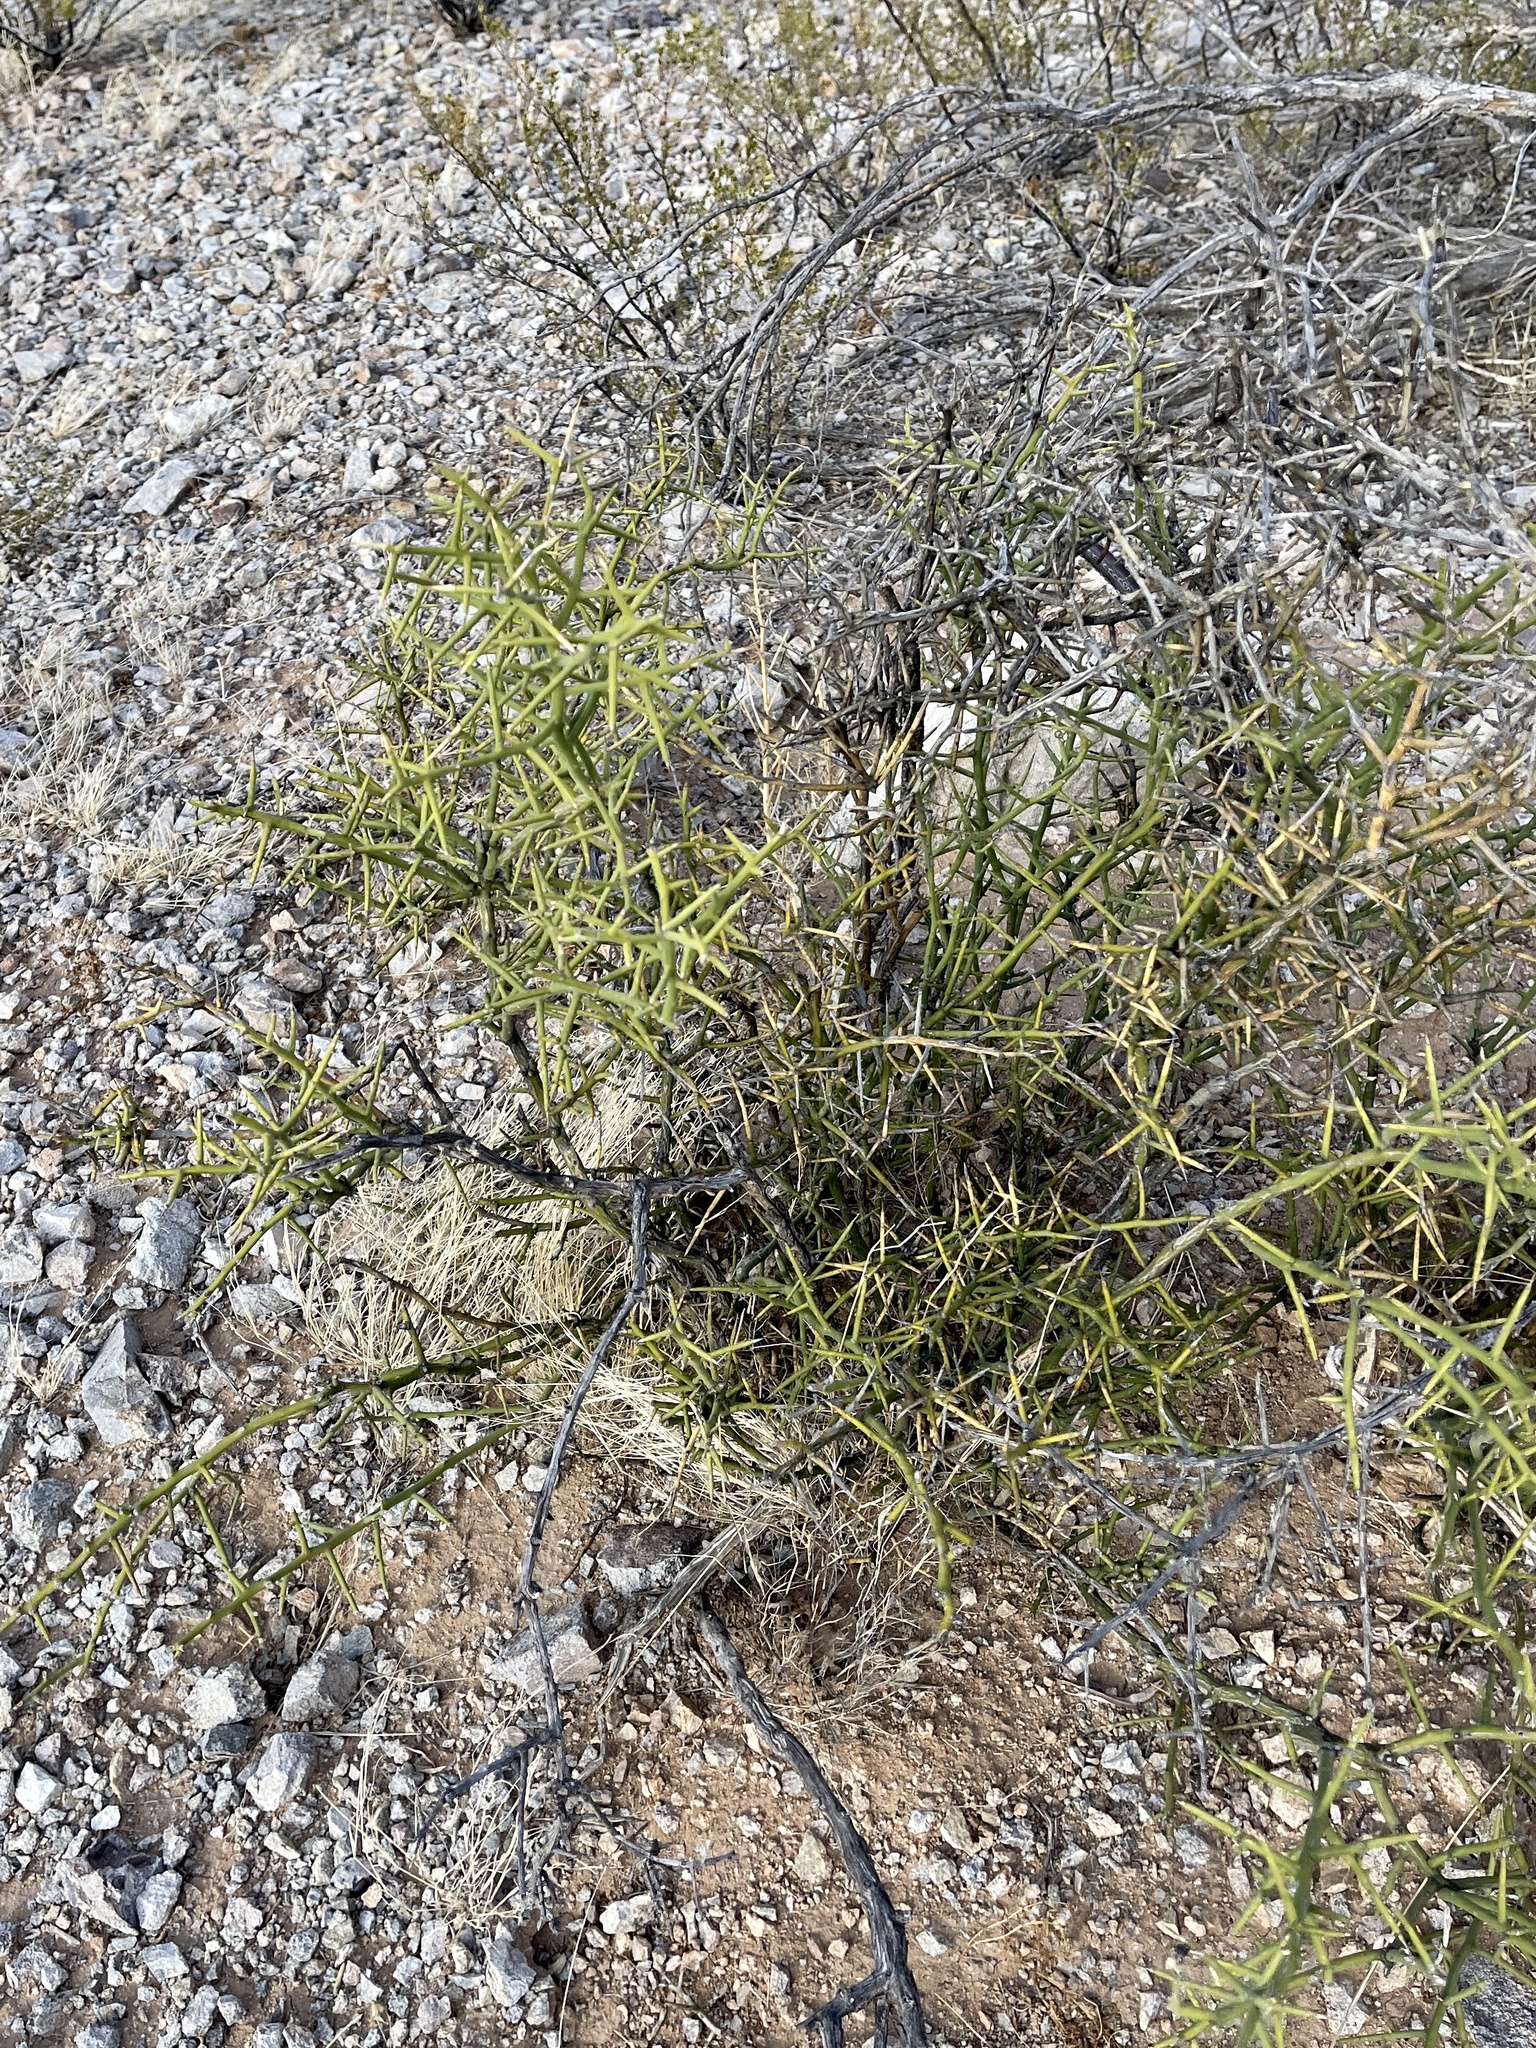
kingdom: Plantae
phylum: Tracheophyta
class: Magnoliopsida
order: Brassicales
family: Koeberliniaceae
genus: Koeberlinia
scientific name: Koeberlinia spinosa
